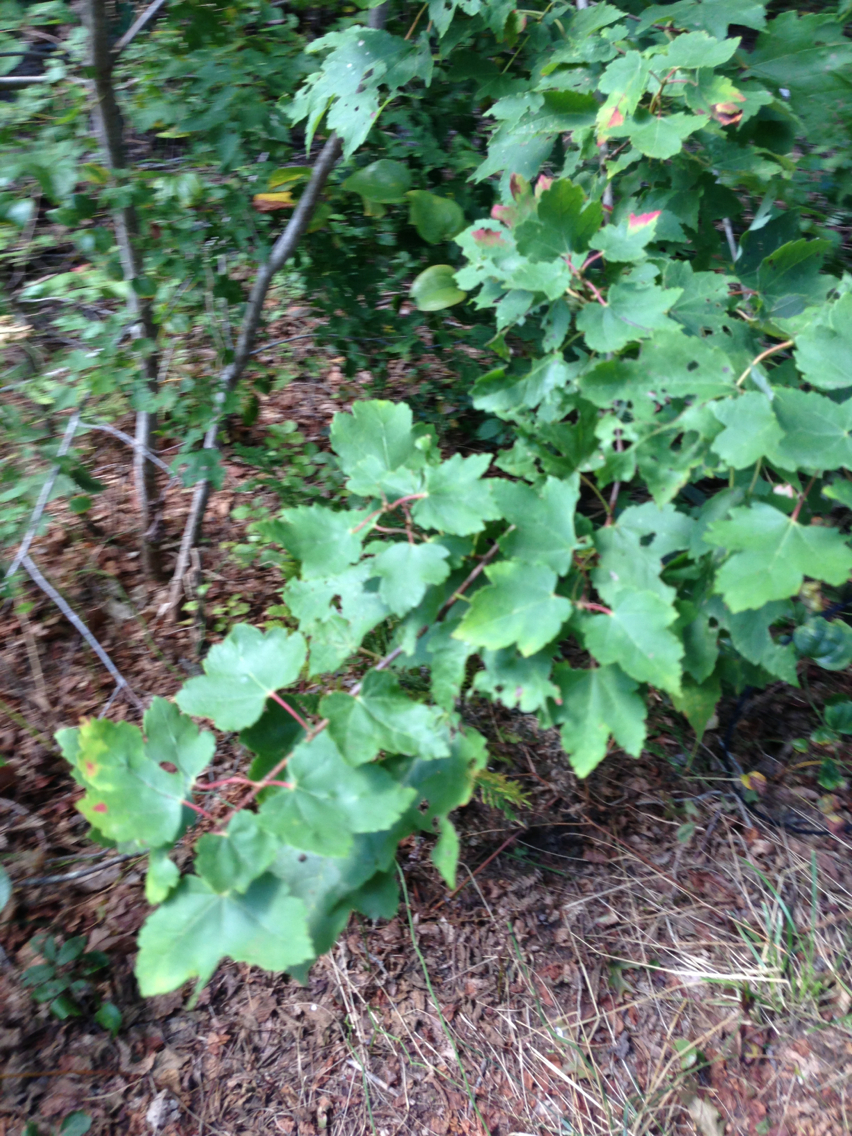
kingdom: Plantae
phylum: Tracheophyta
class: Magnoliopsida
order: Sapindales
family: Sapindaceae
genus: Acer
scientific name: Acer rubrum
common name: Red maple
